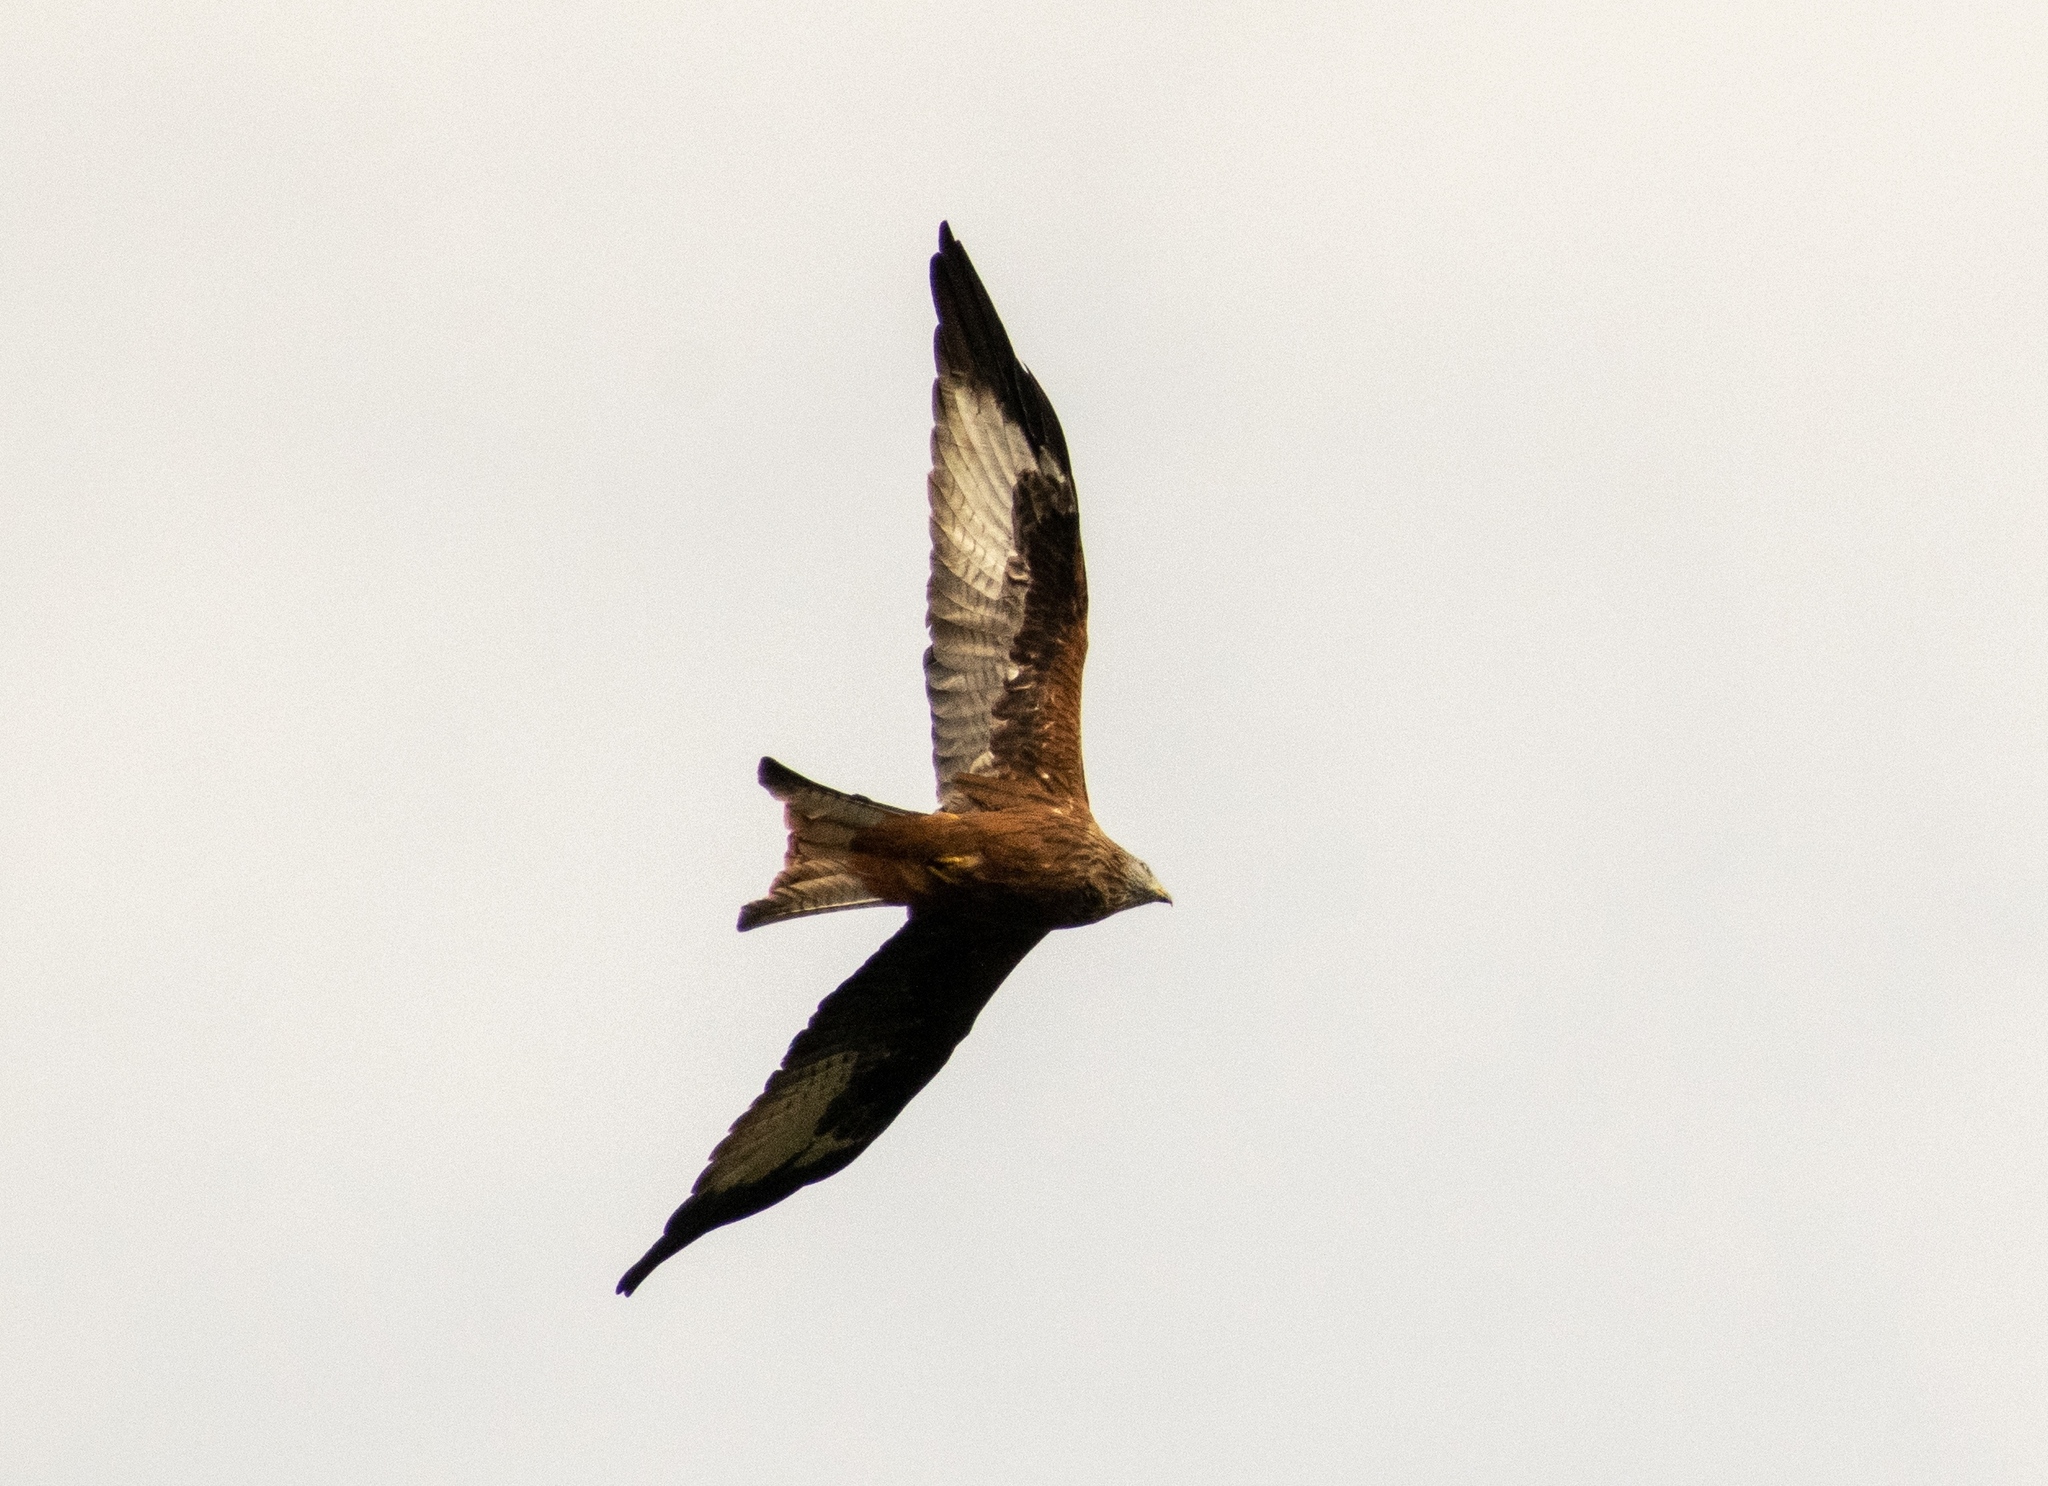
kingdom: Animalia
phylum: Chordata
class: Aves
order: Accipitriformes
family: Accipitridae
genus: Milvus
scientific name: Milvus milvus
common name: Red kite
